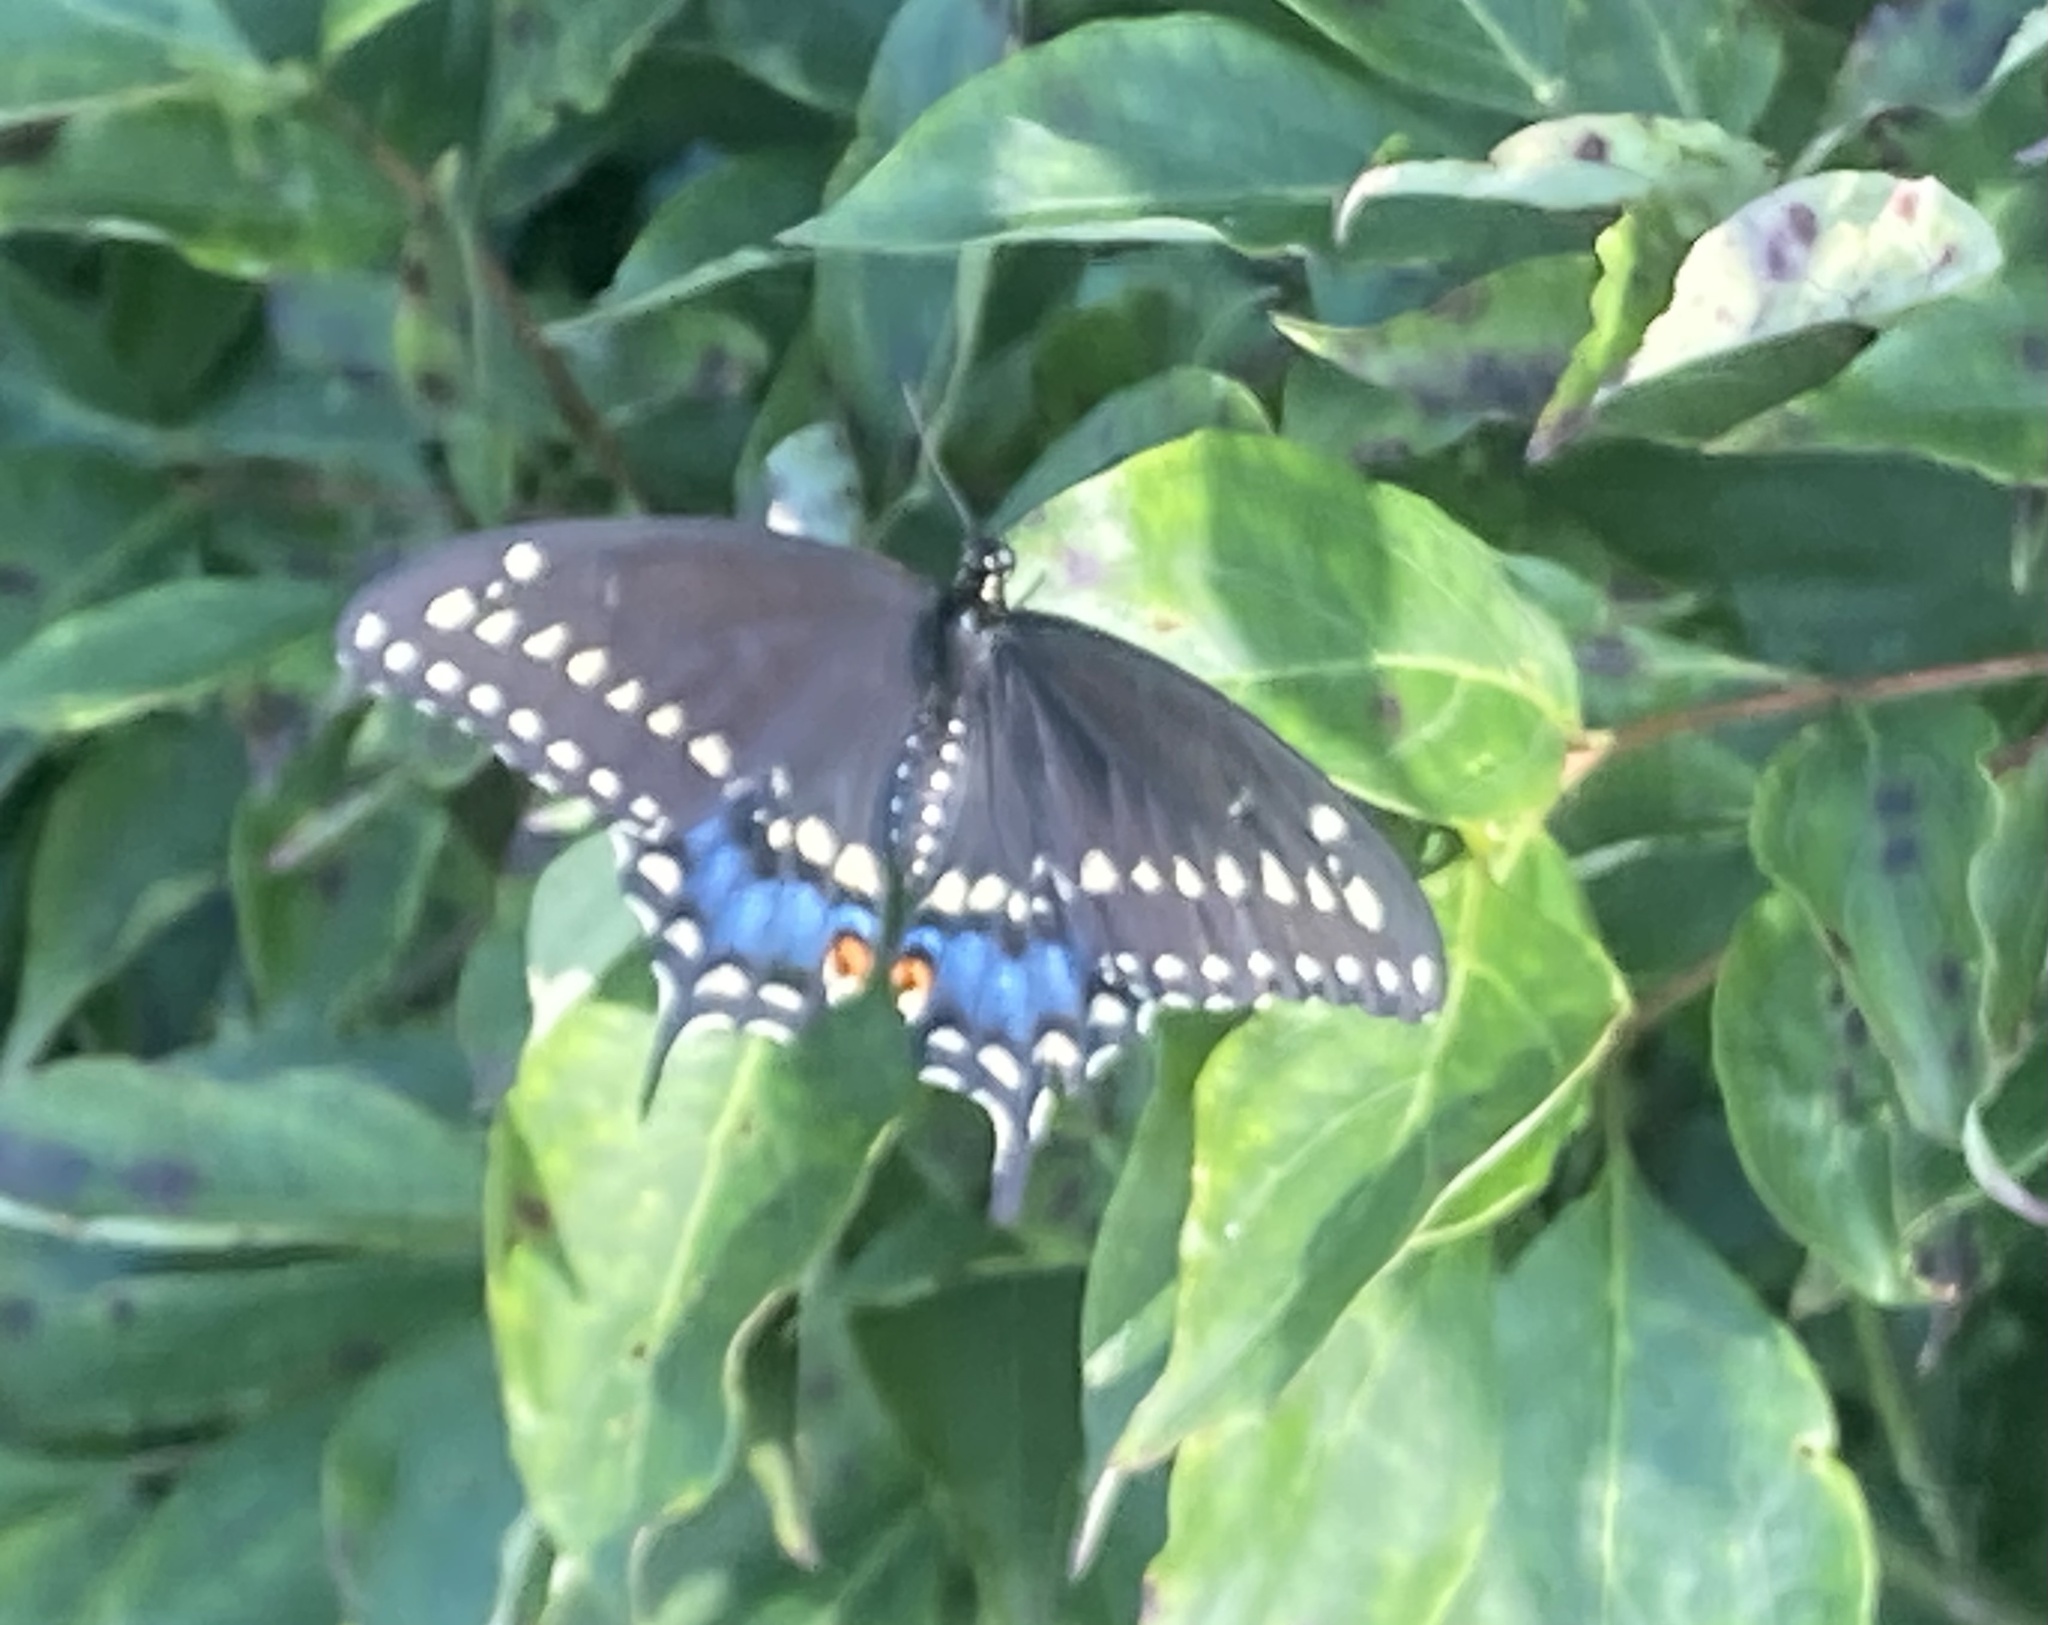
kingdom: Animalia
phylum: Arthropoda
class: Insecta
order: Lepidoptera
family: Papilionidae
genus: Papilio
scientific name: Papilio polyxenes
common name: Black swallowtail
